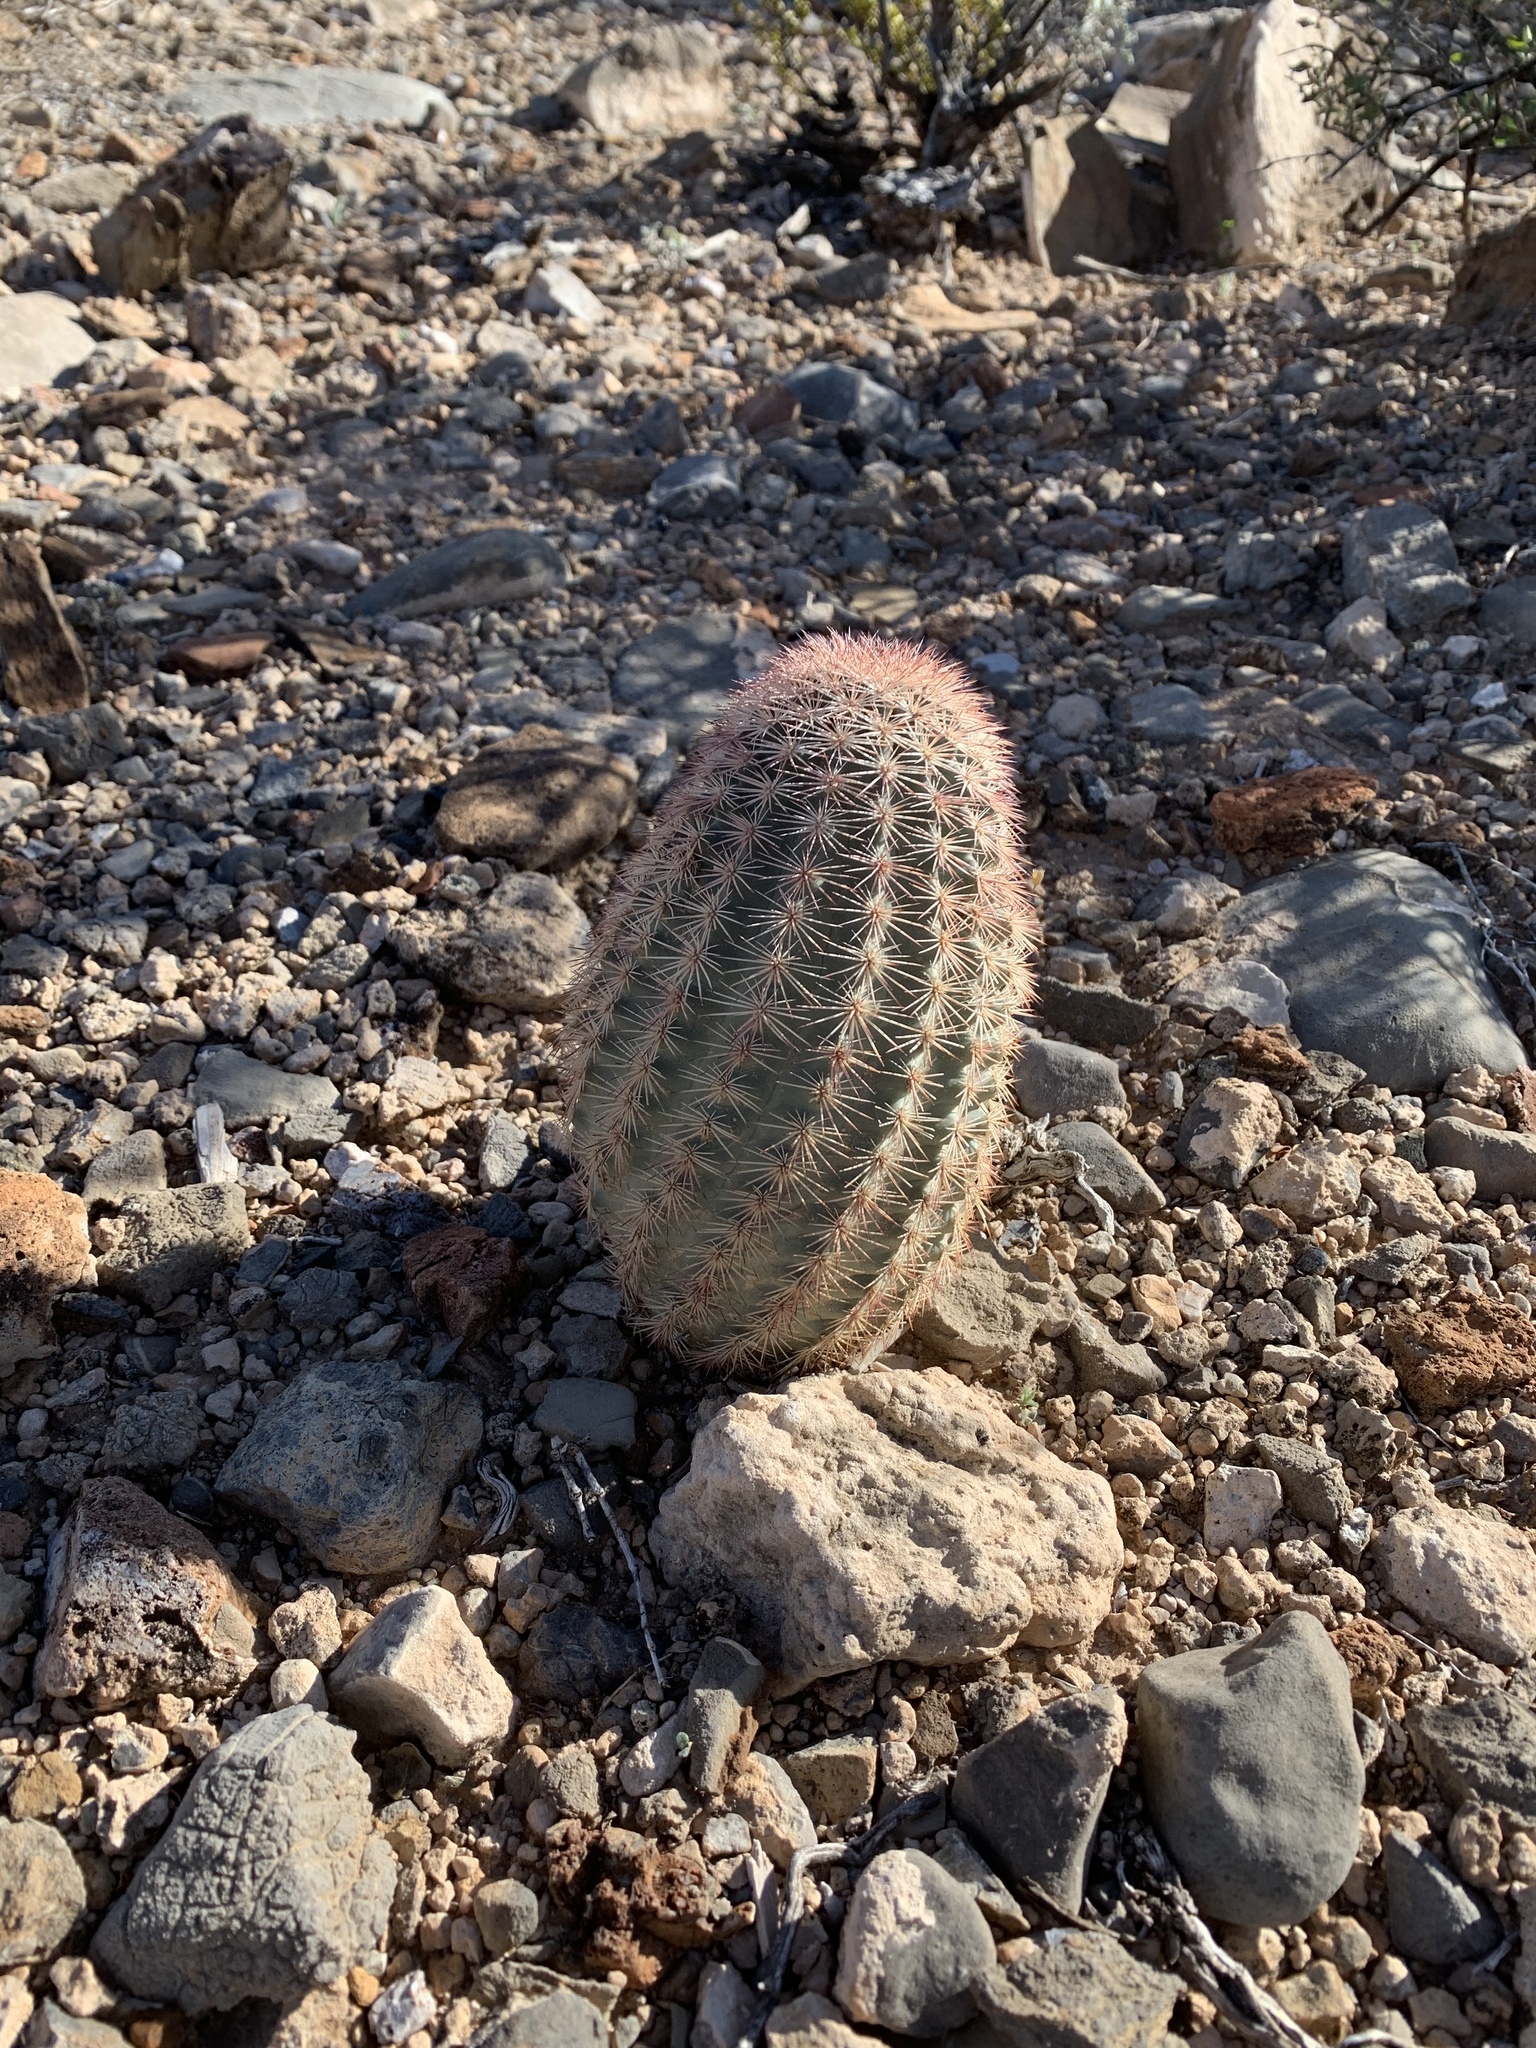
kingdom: Plantae
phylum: Tracheophyta
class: Magnoliopsida
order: Caryophyllales
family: Cactaceae
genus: Echinocereus
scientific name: Echinocereus dasyacanthus
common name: Spiny hedgehog cactus
